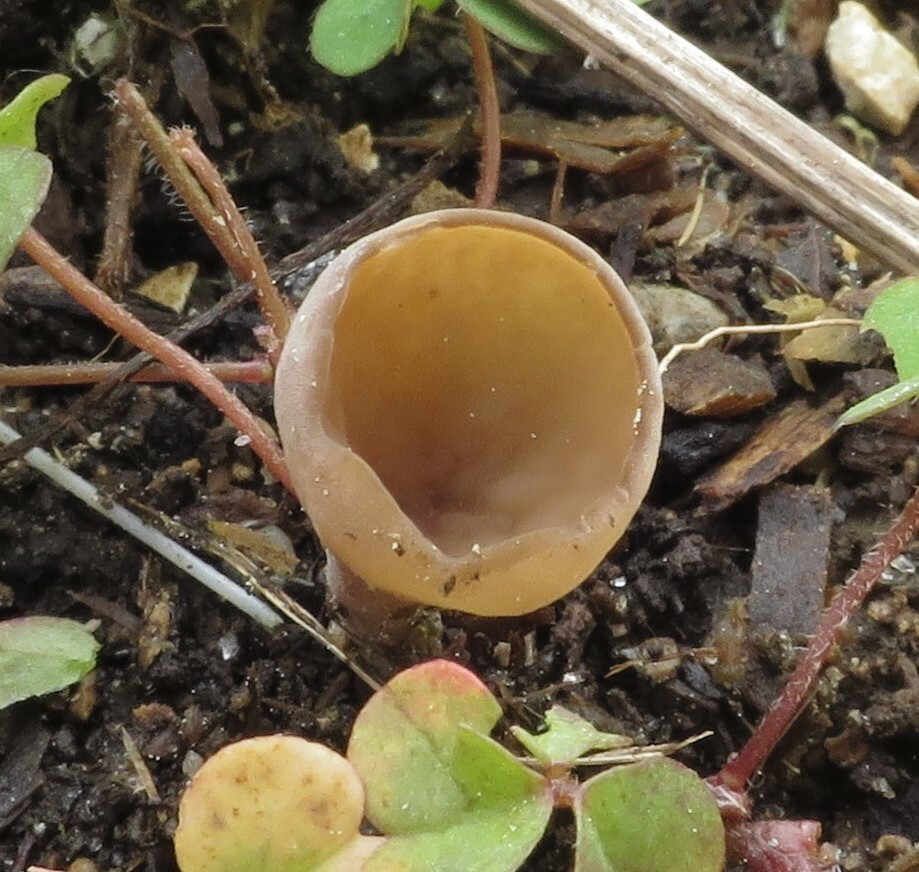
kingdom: Fungi
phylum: Ascomycota
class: Leotiomycetes
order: Helotiales
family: Sclerotiniaceae
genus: Ciborinia
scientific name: Ciborinia camelliae
